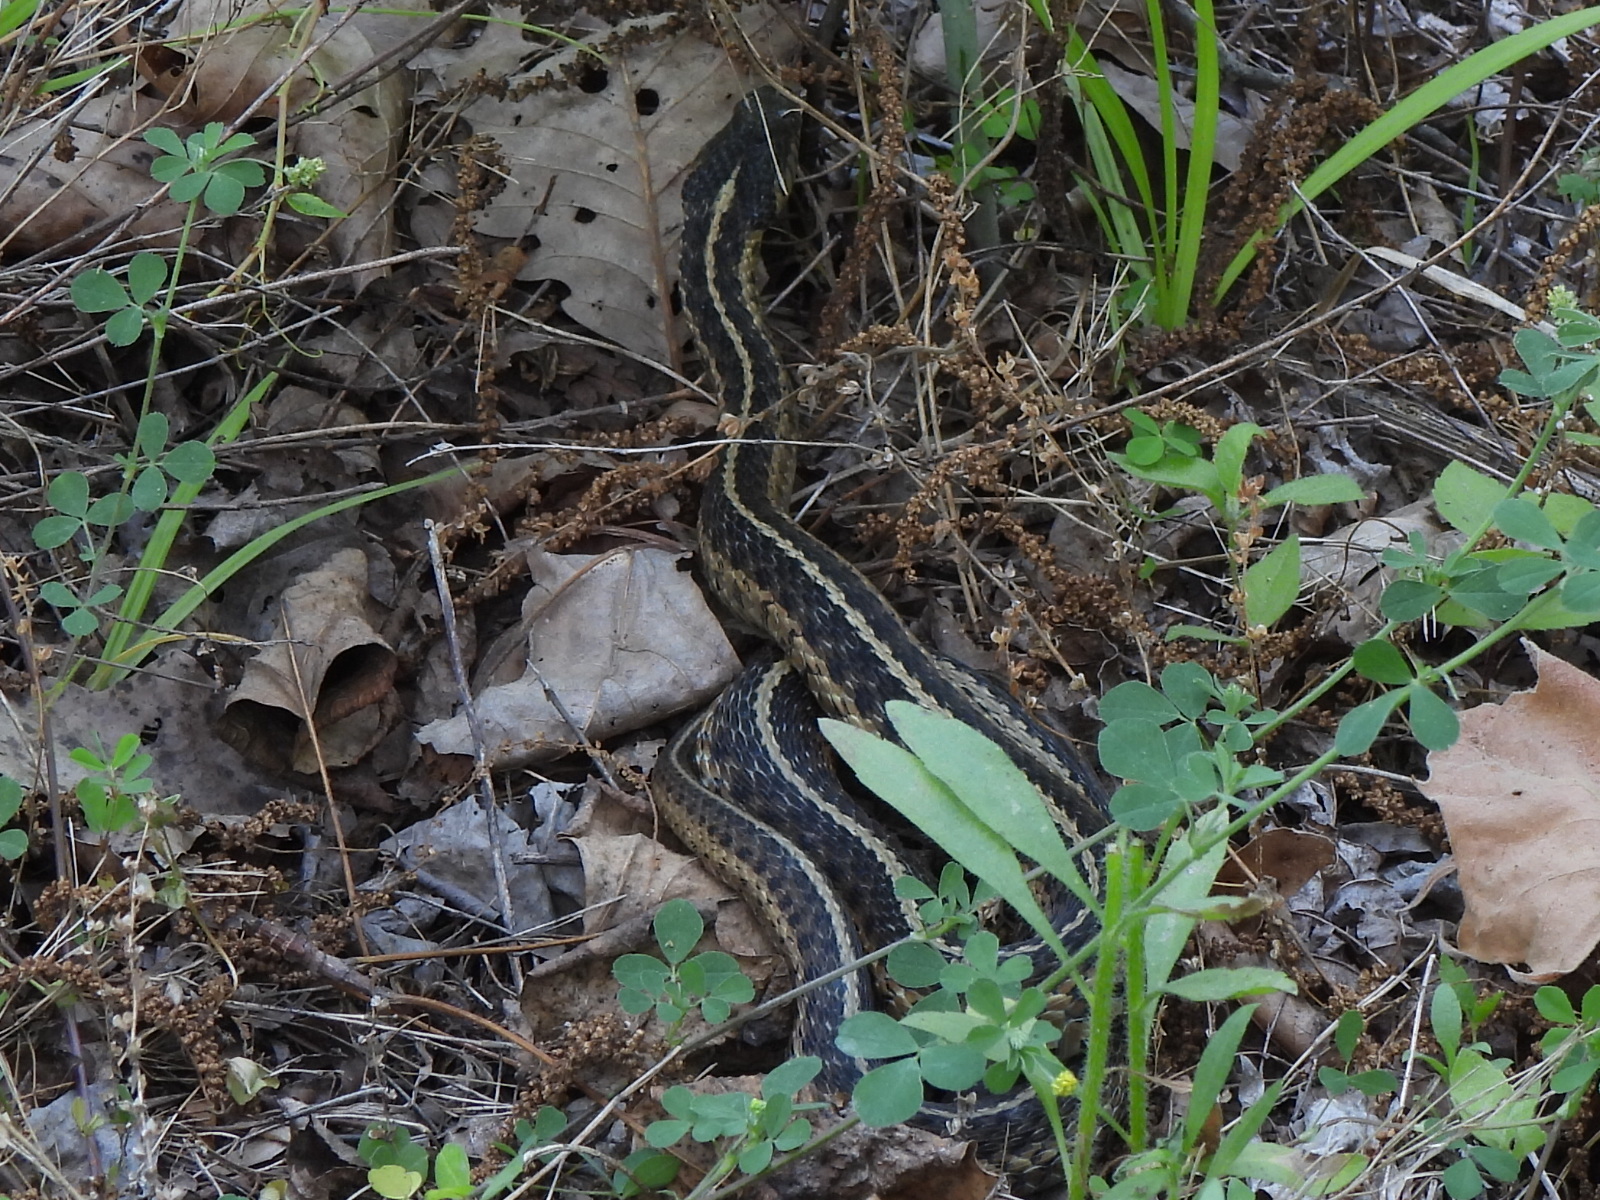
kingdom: Animalia
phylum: Chordata
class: Squamata
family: Colubridae
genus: Thamnophis
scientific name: Thamnophis sirtalis
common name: Common garter snake
